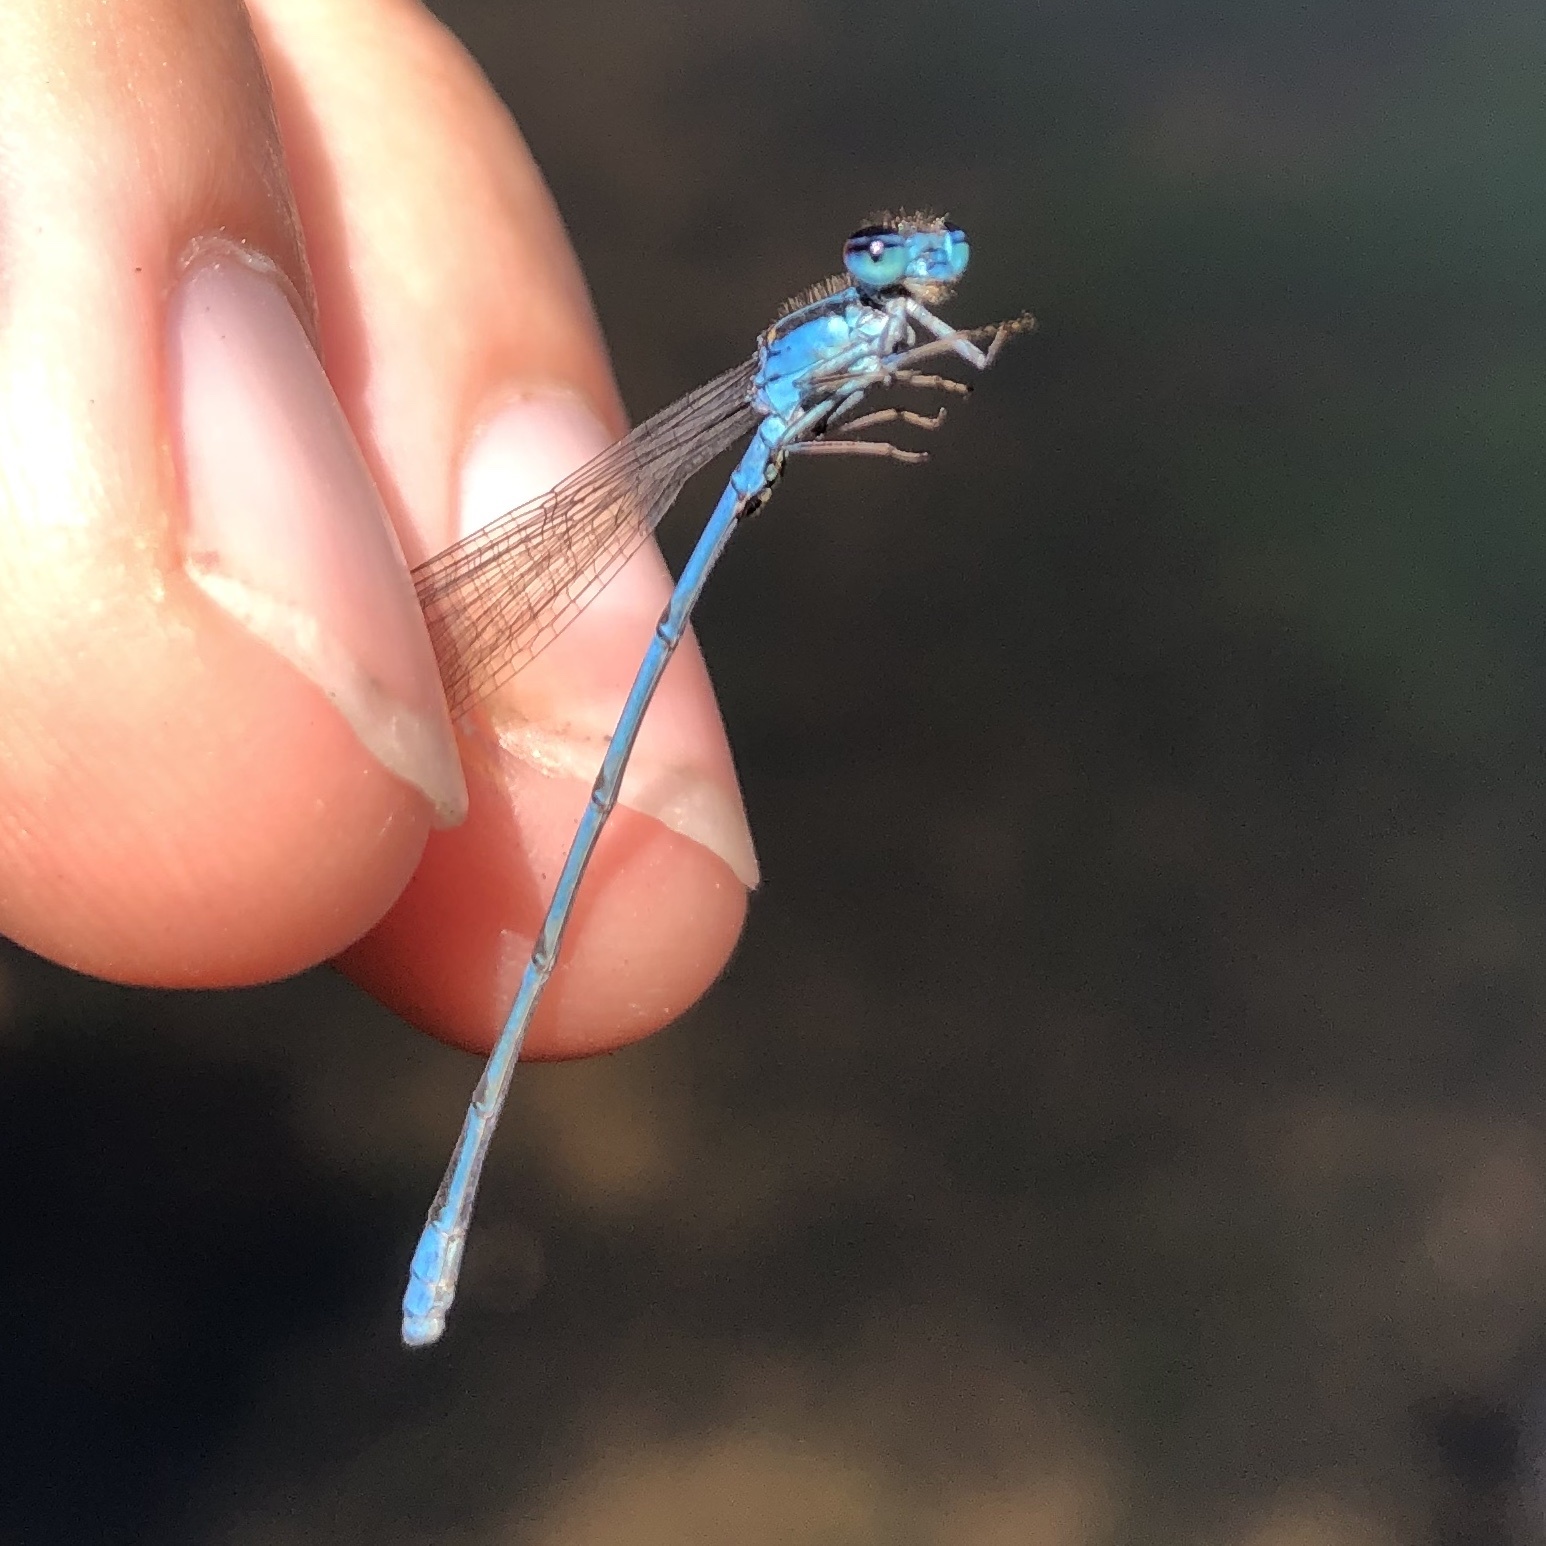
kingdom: Animalia
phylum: Arthropoda
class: Insecta
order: Odonata
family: Coenagrionidae
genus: Enallagma
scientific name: Enallagma exsulans
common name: Stream bluet
